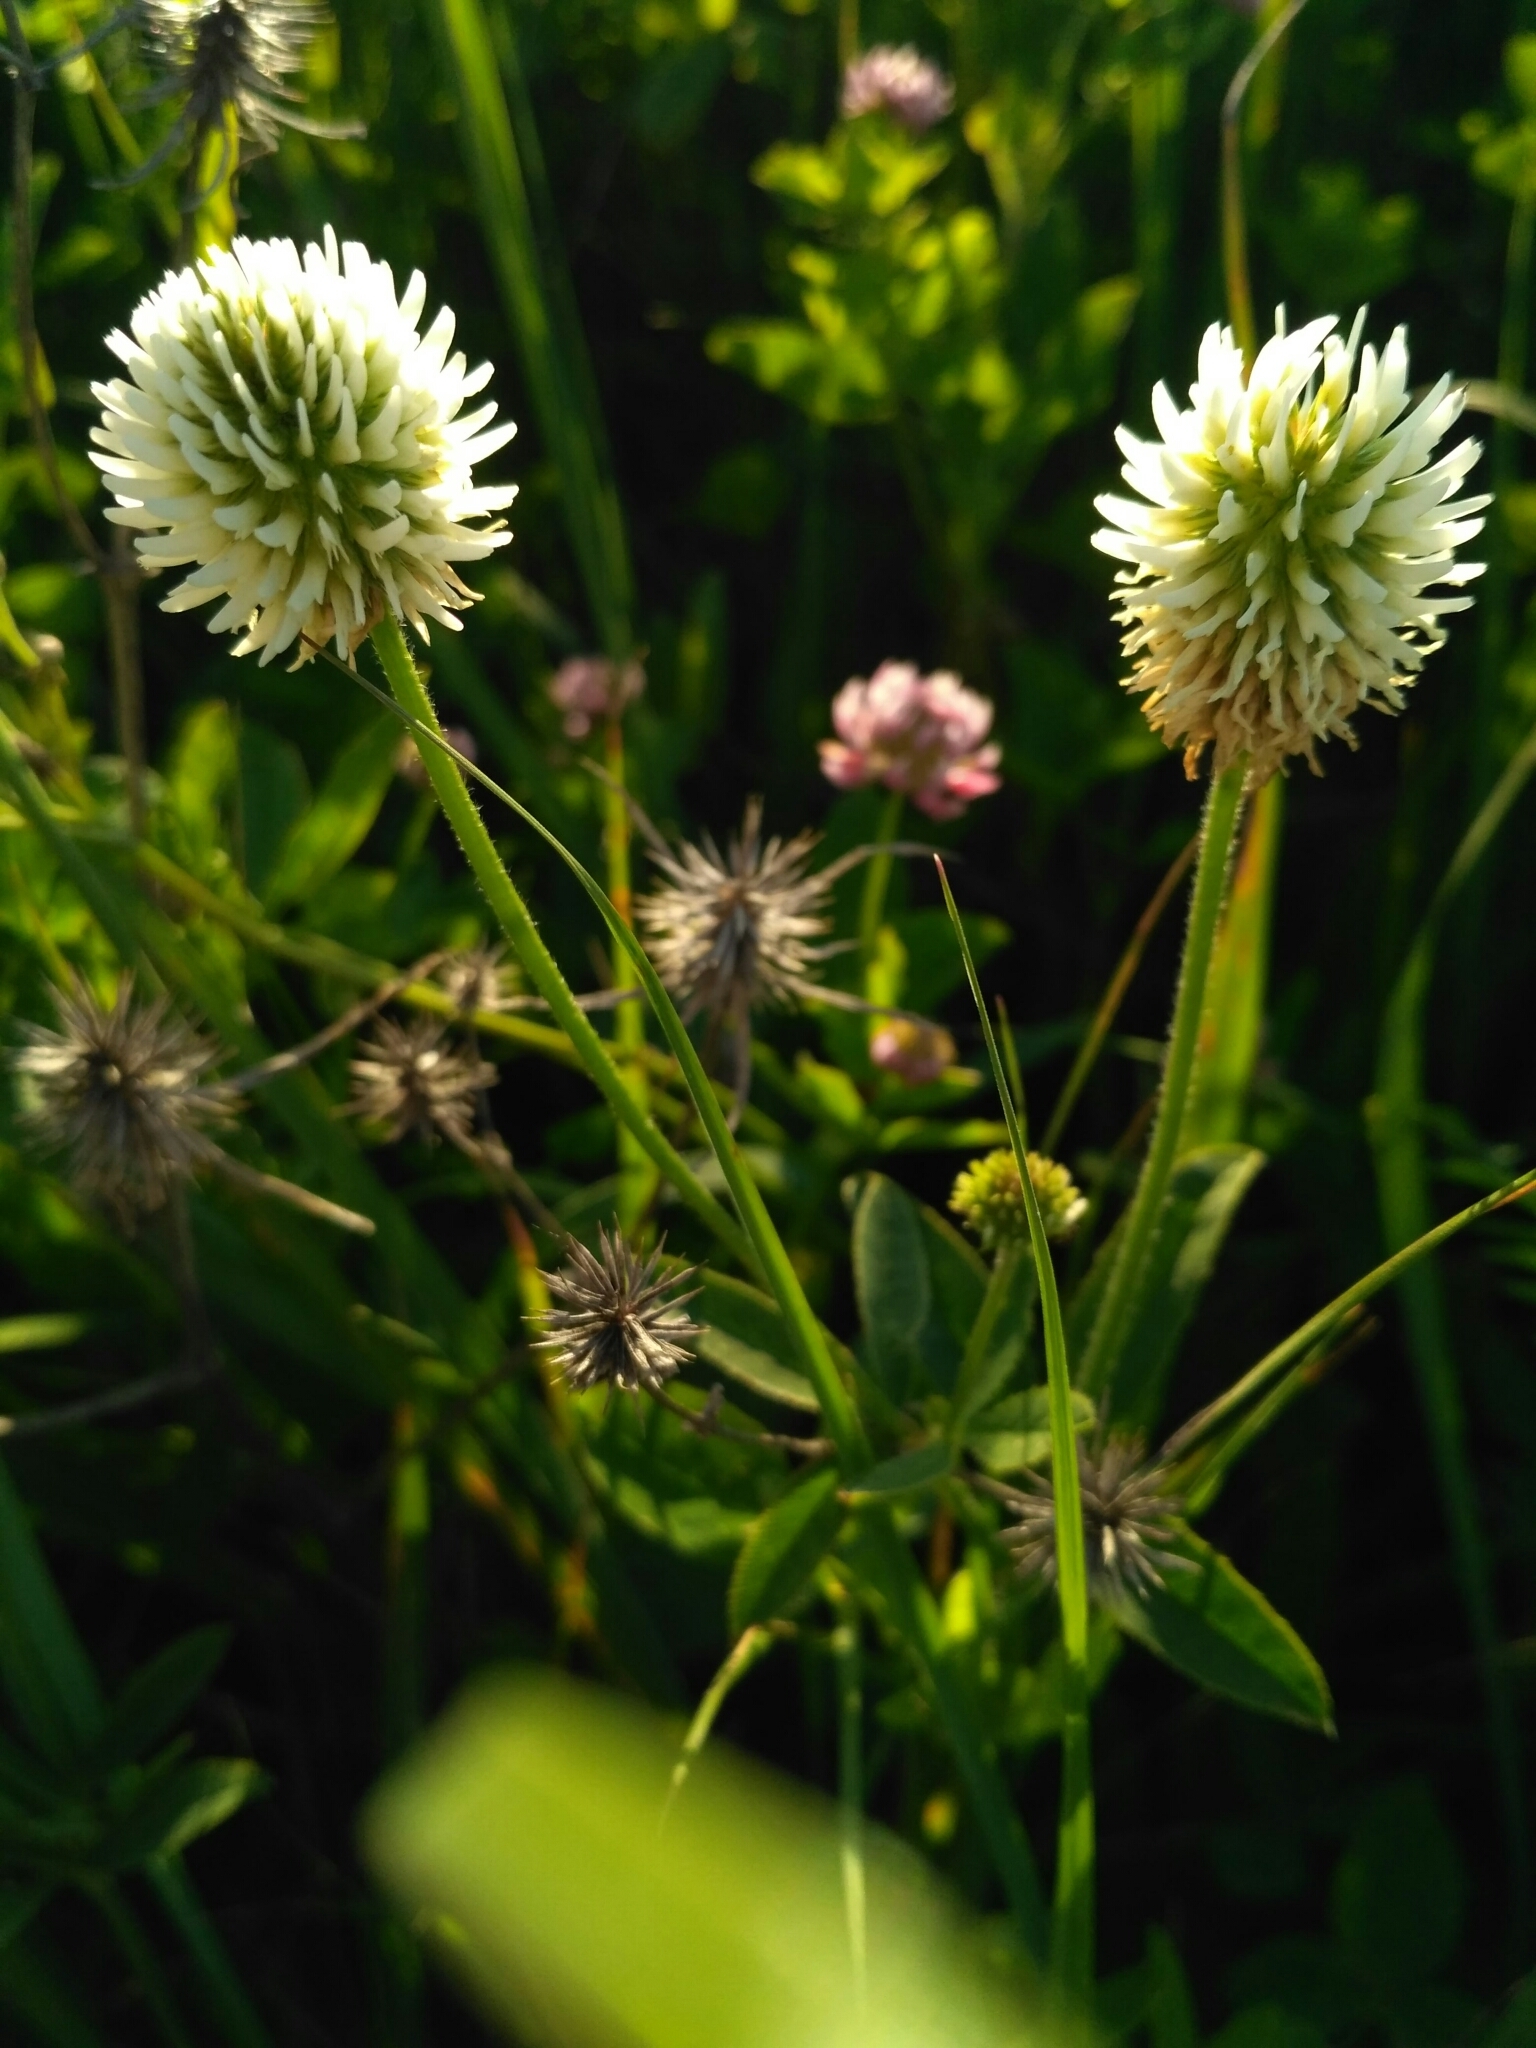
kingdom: Plantae
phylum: Tracheophyta
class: Magnoliopsida
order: Fabales
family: Fabaceae
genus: Trifolium
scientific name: Trifolium montanum
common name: Mountain clover
